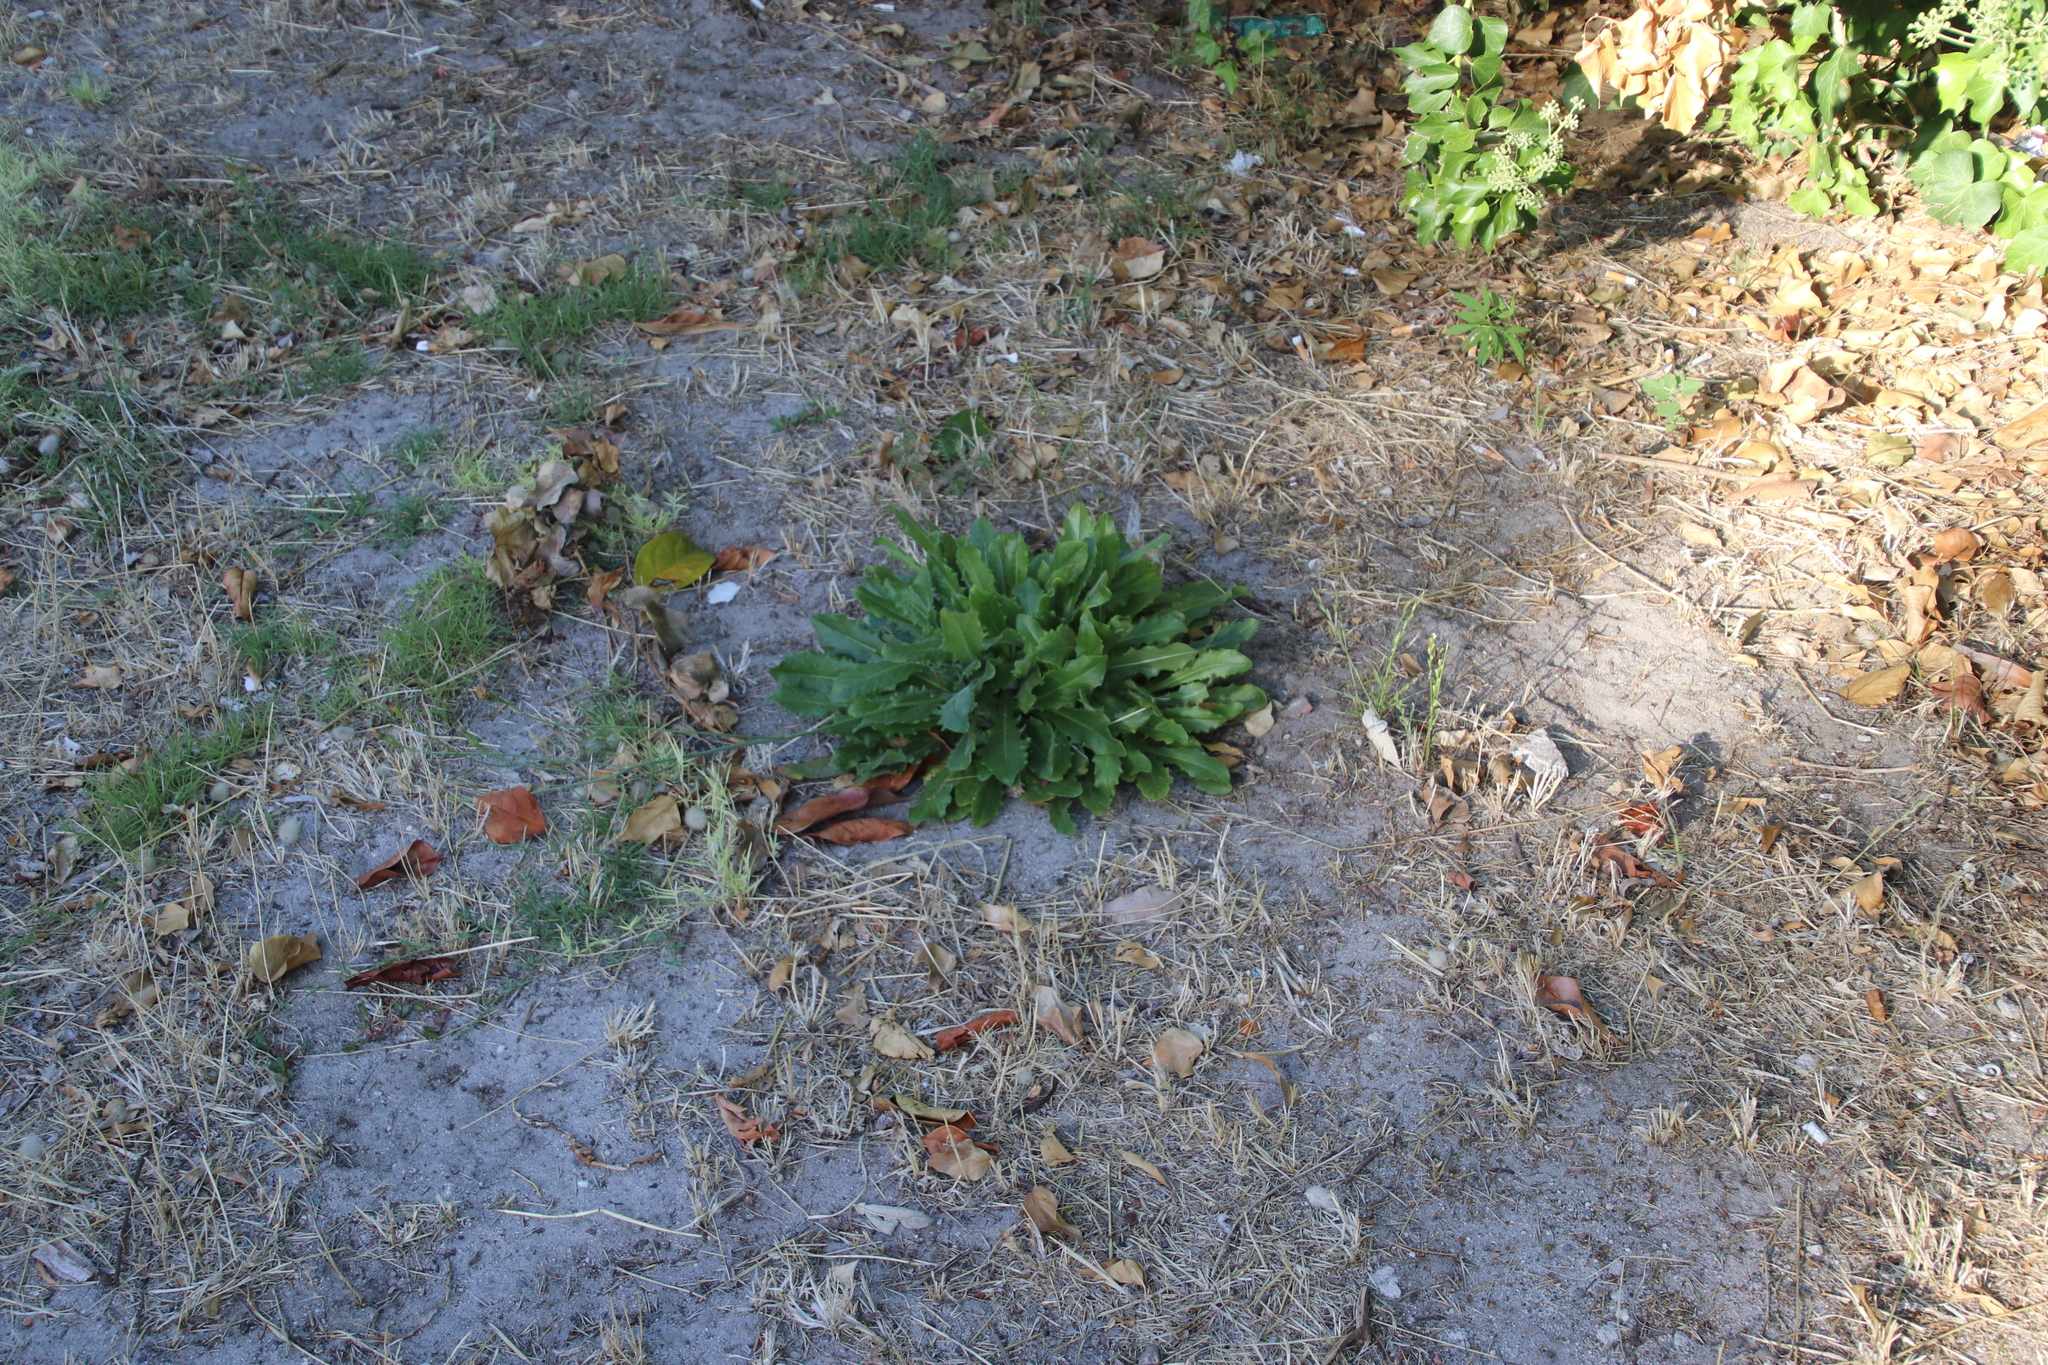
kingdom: Plantae
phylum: Tracheophyta
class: Magnoliopsida
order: Asterales
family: Asteraceae
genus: Hypochaeris
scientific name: Hypochaeris radicata
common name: Flatweed
